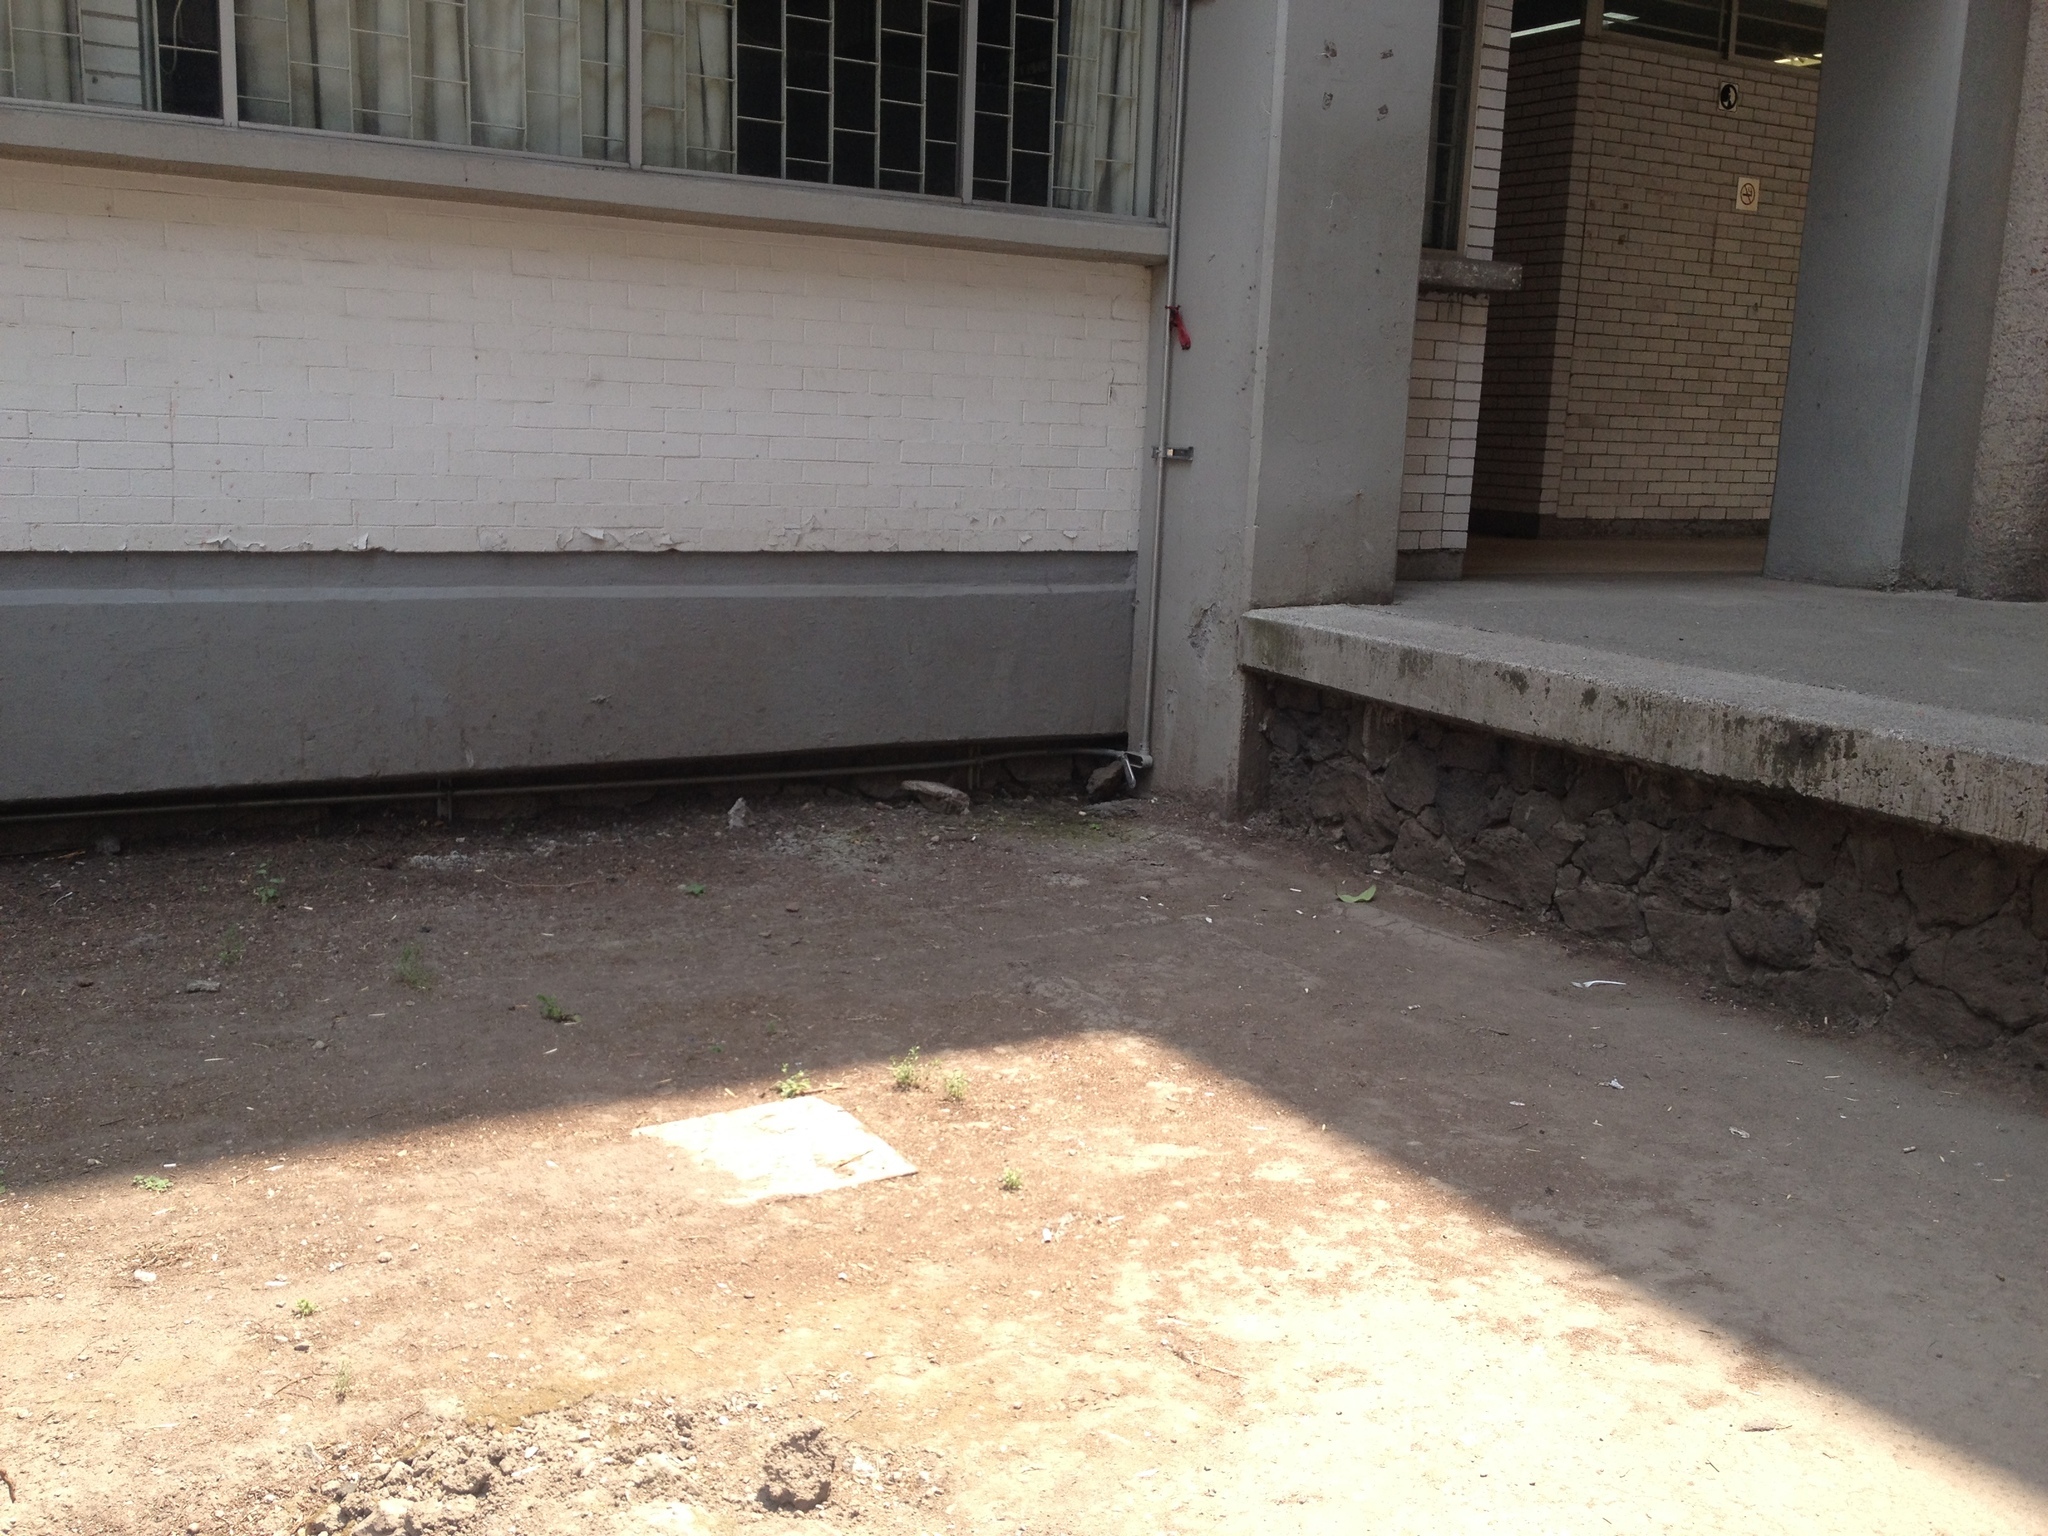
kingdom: Animalia
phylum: Chordata
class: Mammalia
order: Didelphimorphia
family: Didelphidae
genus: Didelphis
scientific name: Didelphis virginiana
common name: Virginia opossum
